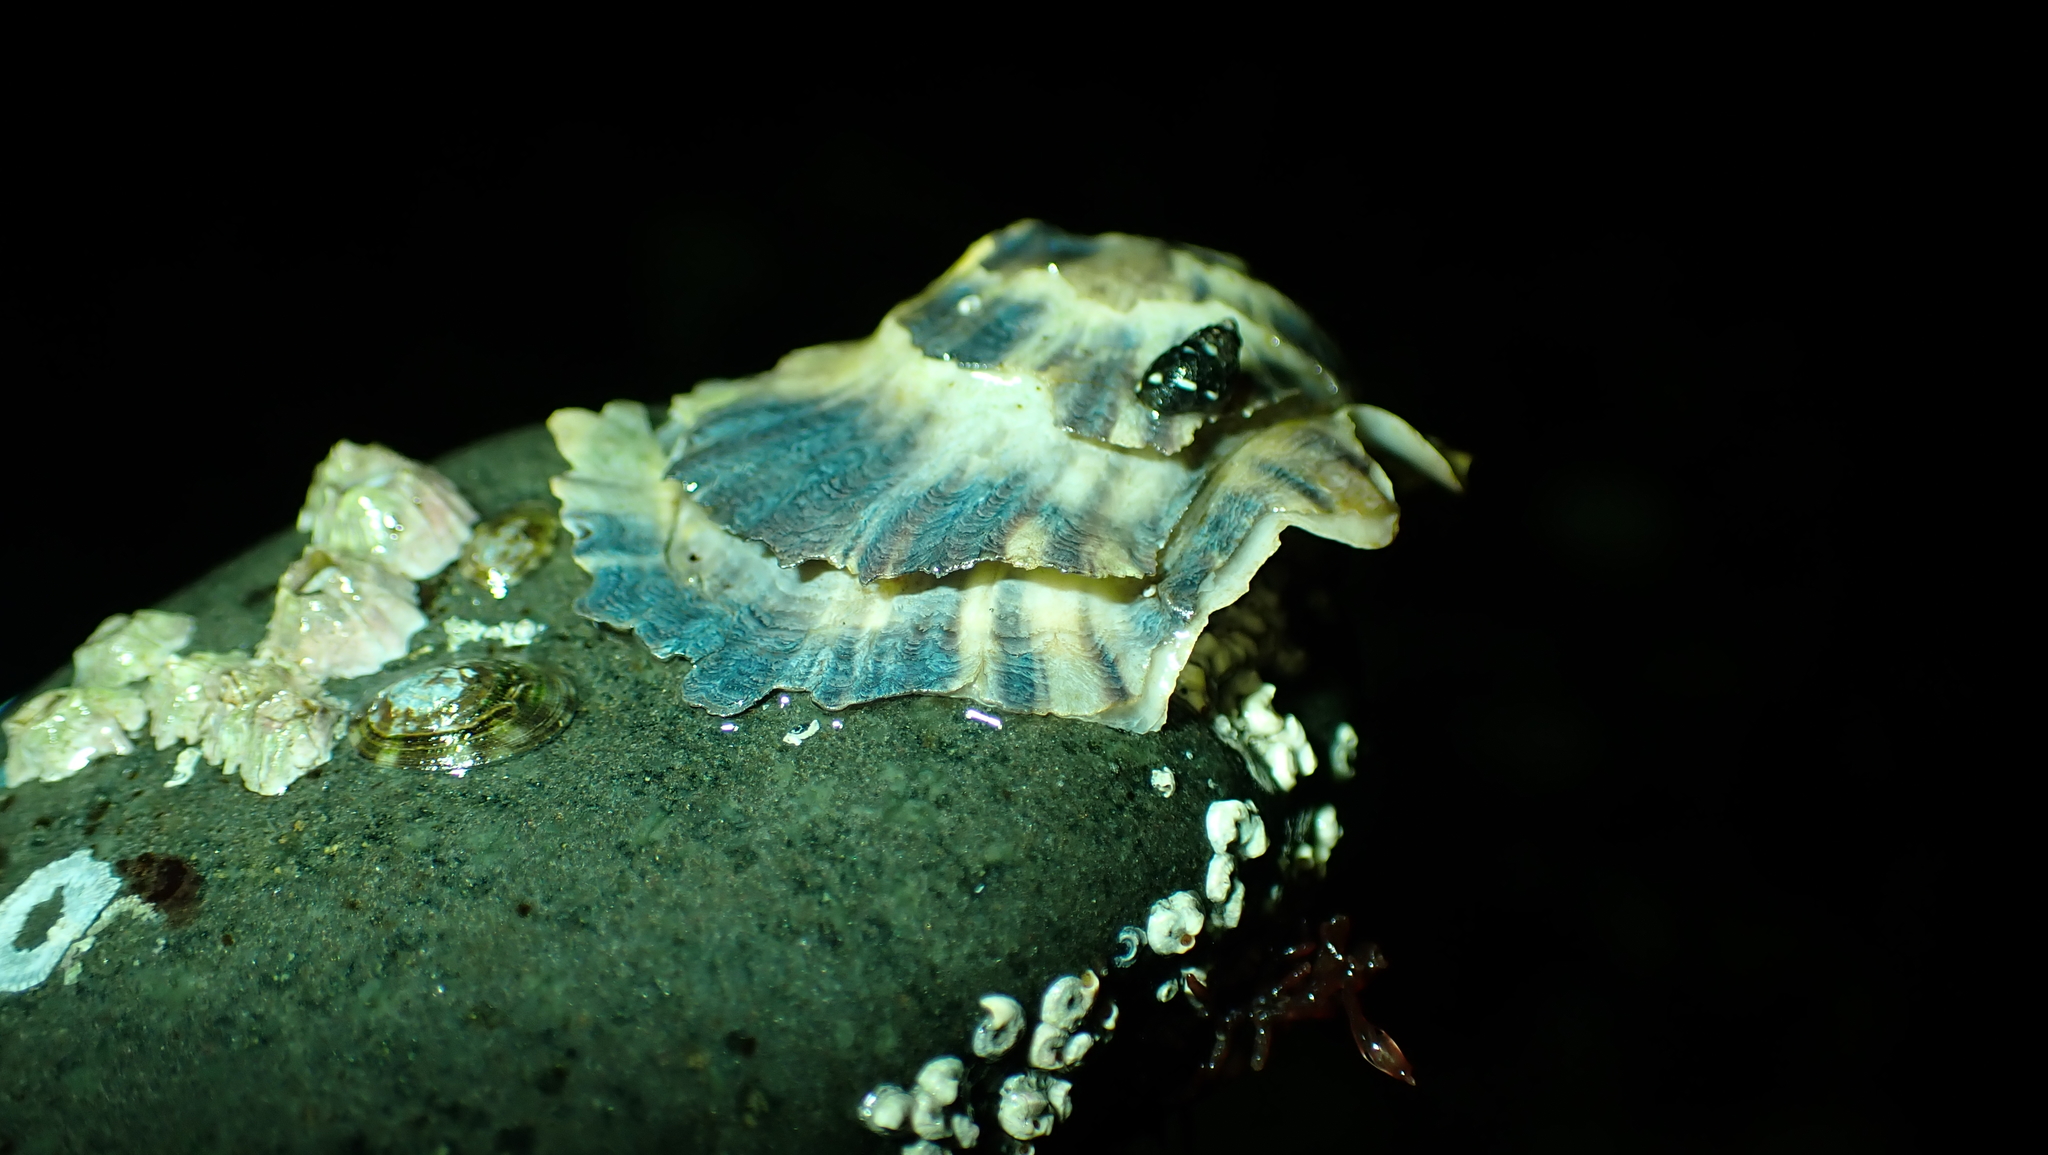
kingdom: Animalia
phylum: Mollusca
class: Bivalvia
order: Ostreida
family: Ostreidae
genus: Magallana
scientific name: Magallana gigas
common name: Pacific oyster
